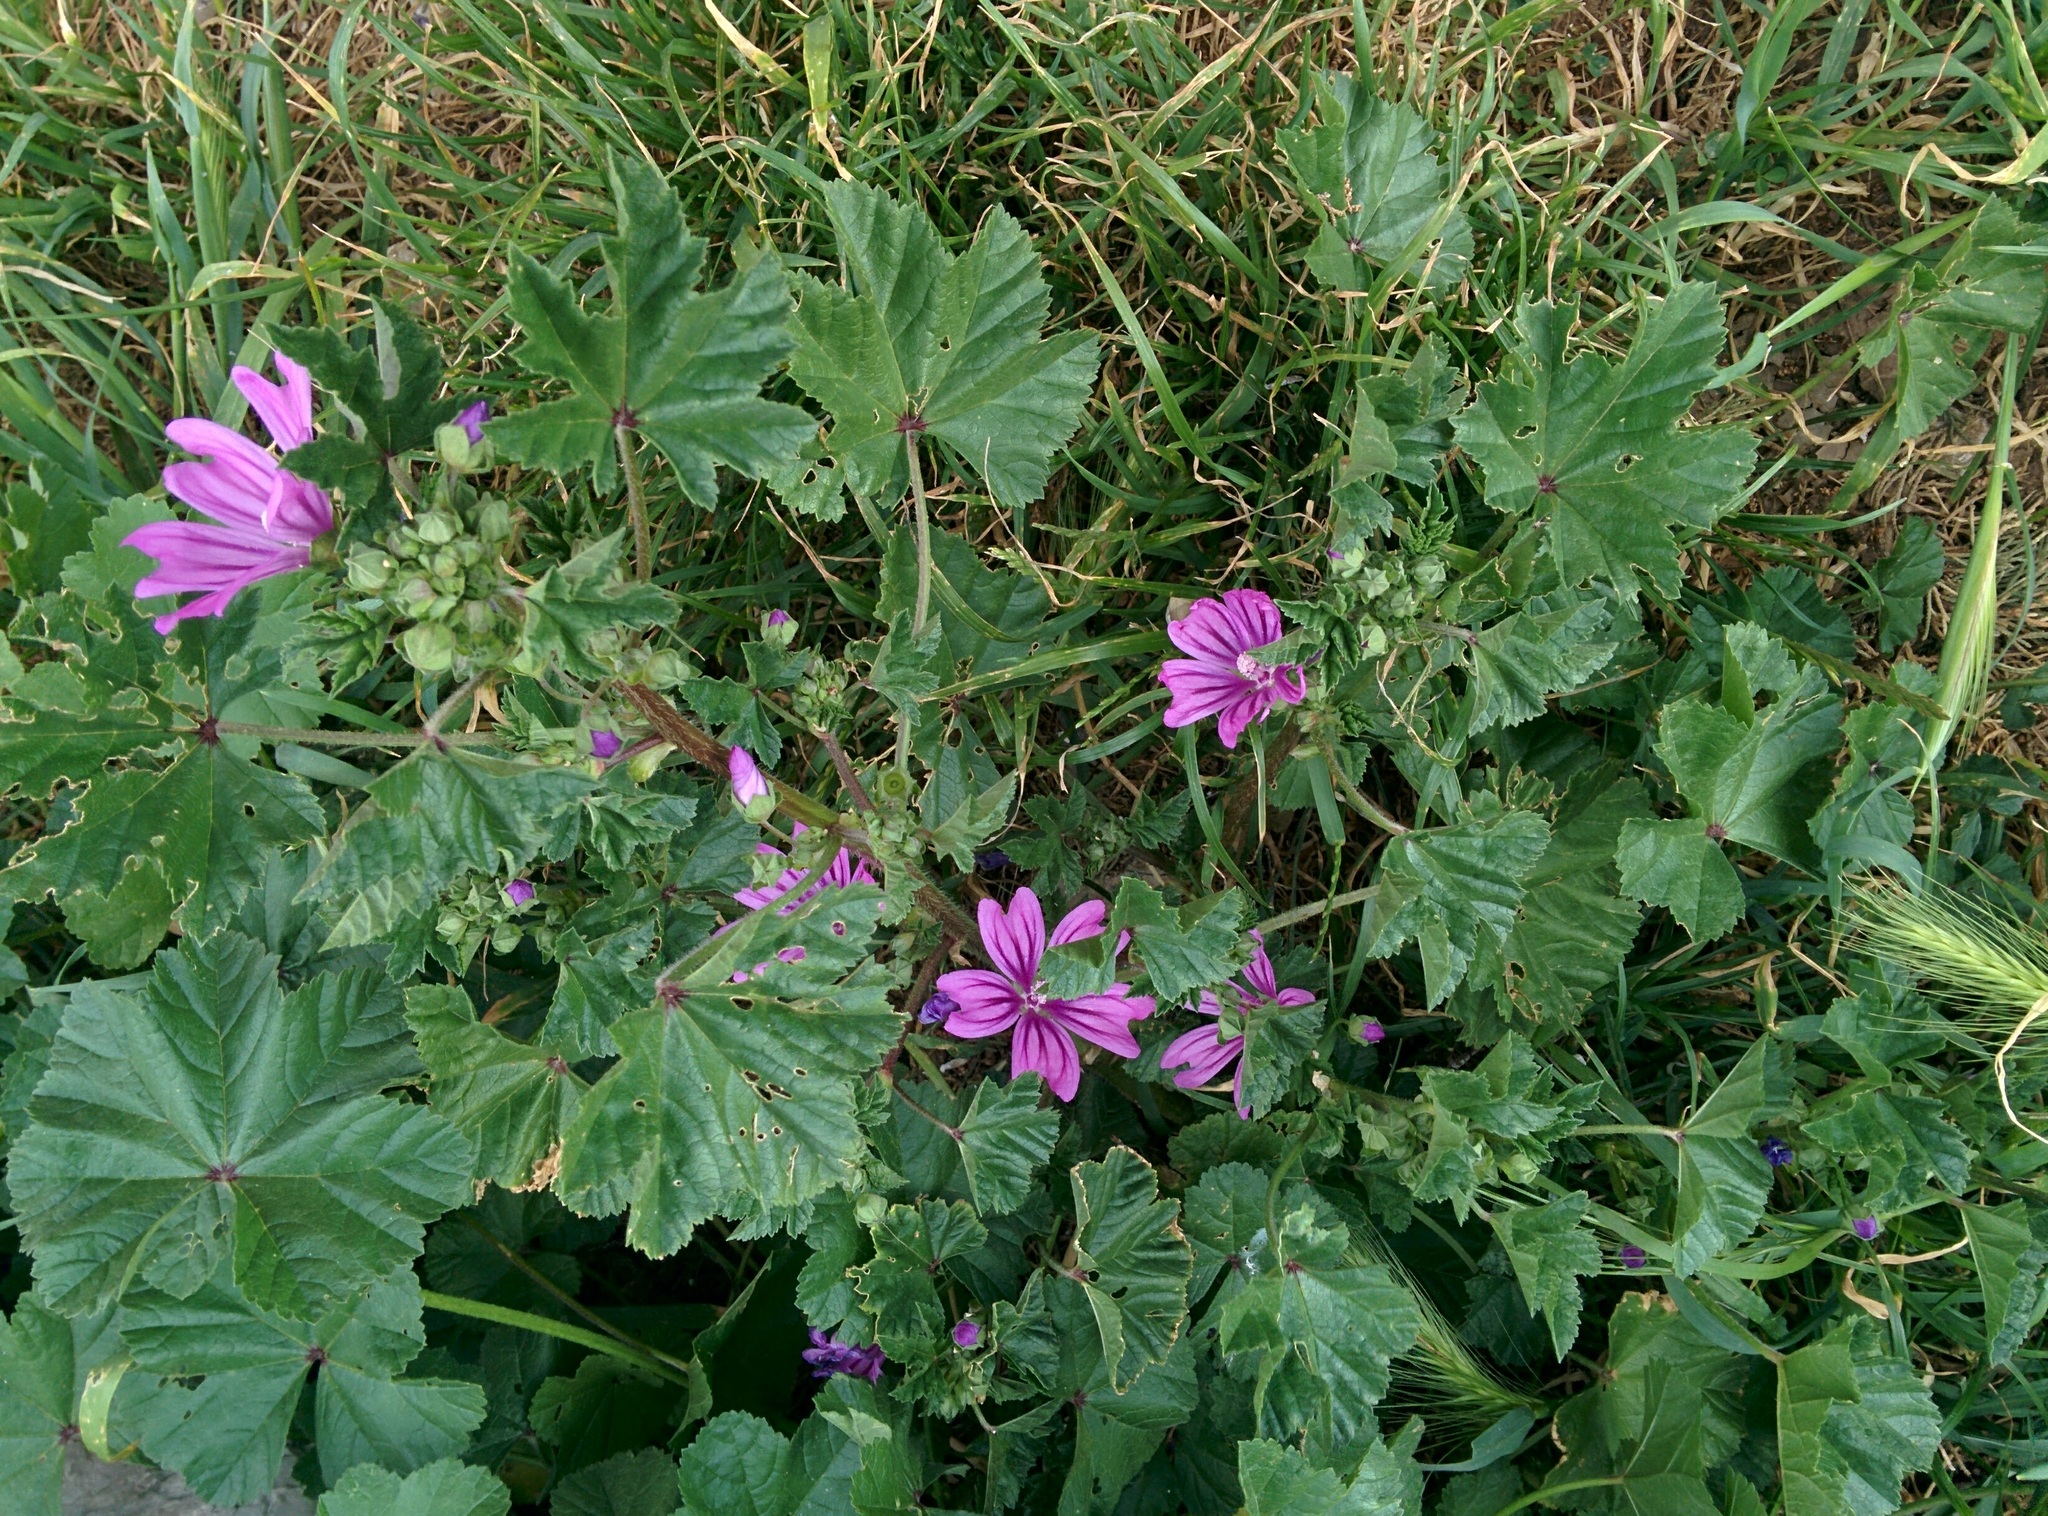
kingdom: Plantae
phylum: Tracheophyta
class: Magnoliopsida
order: Malvales
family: Malvaceae
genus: Malva
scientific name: Malva sylvestris
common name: Common mallow
